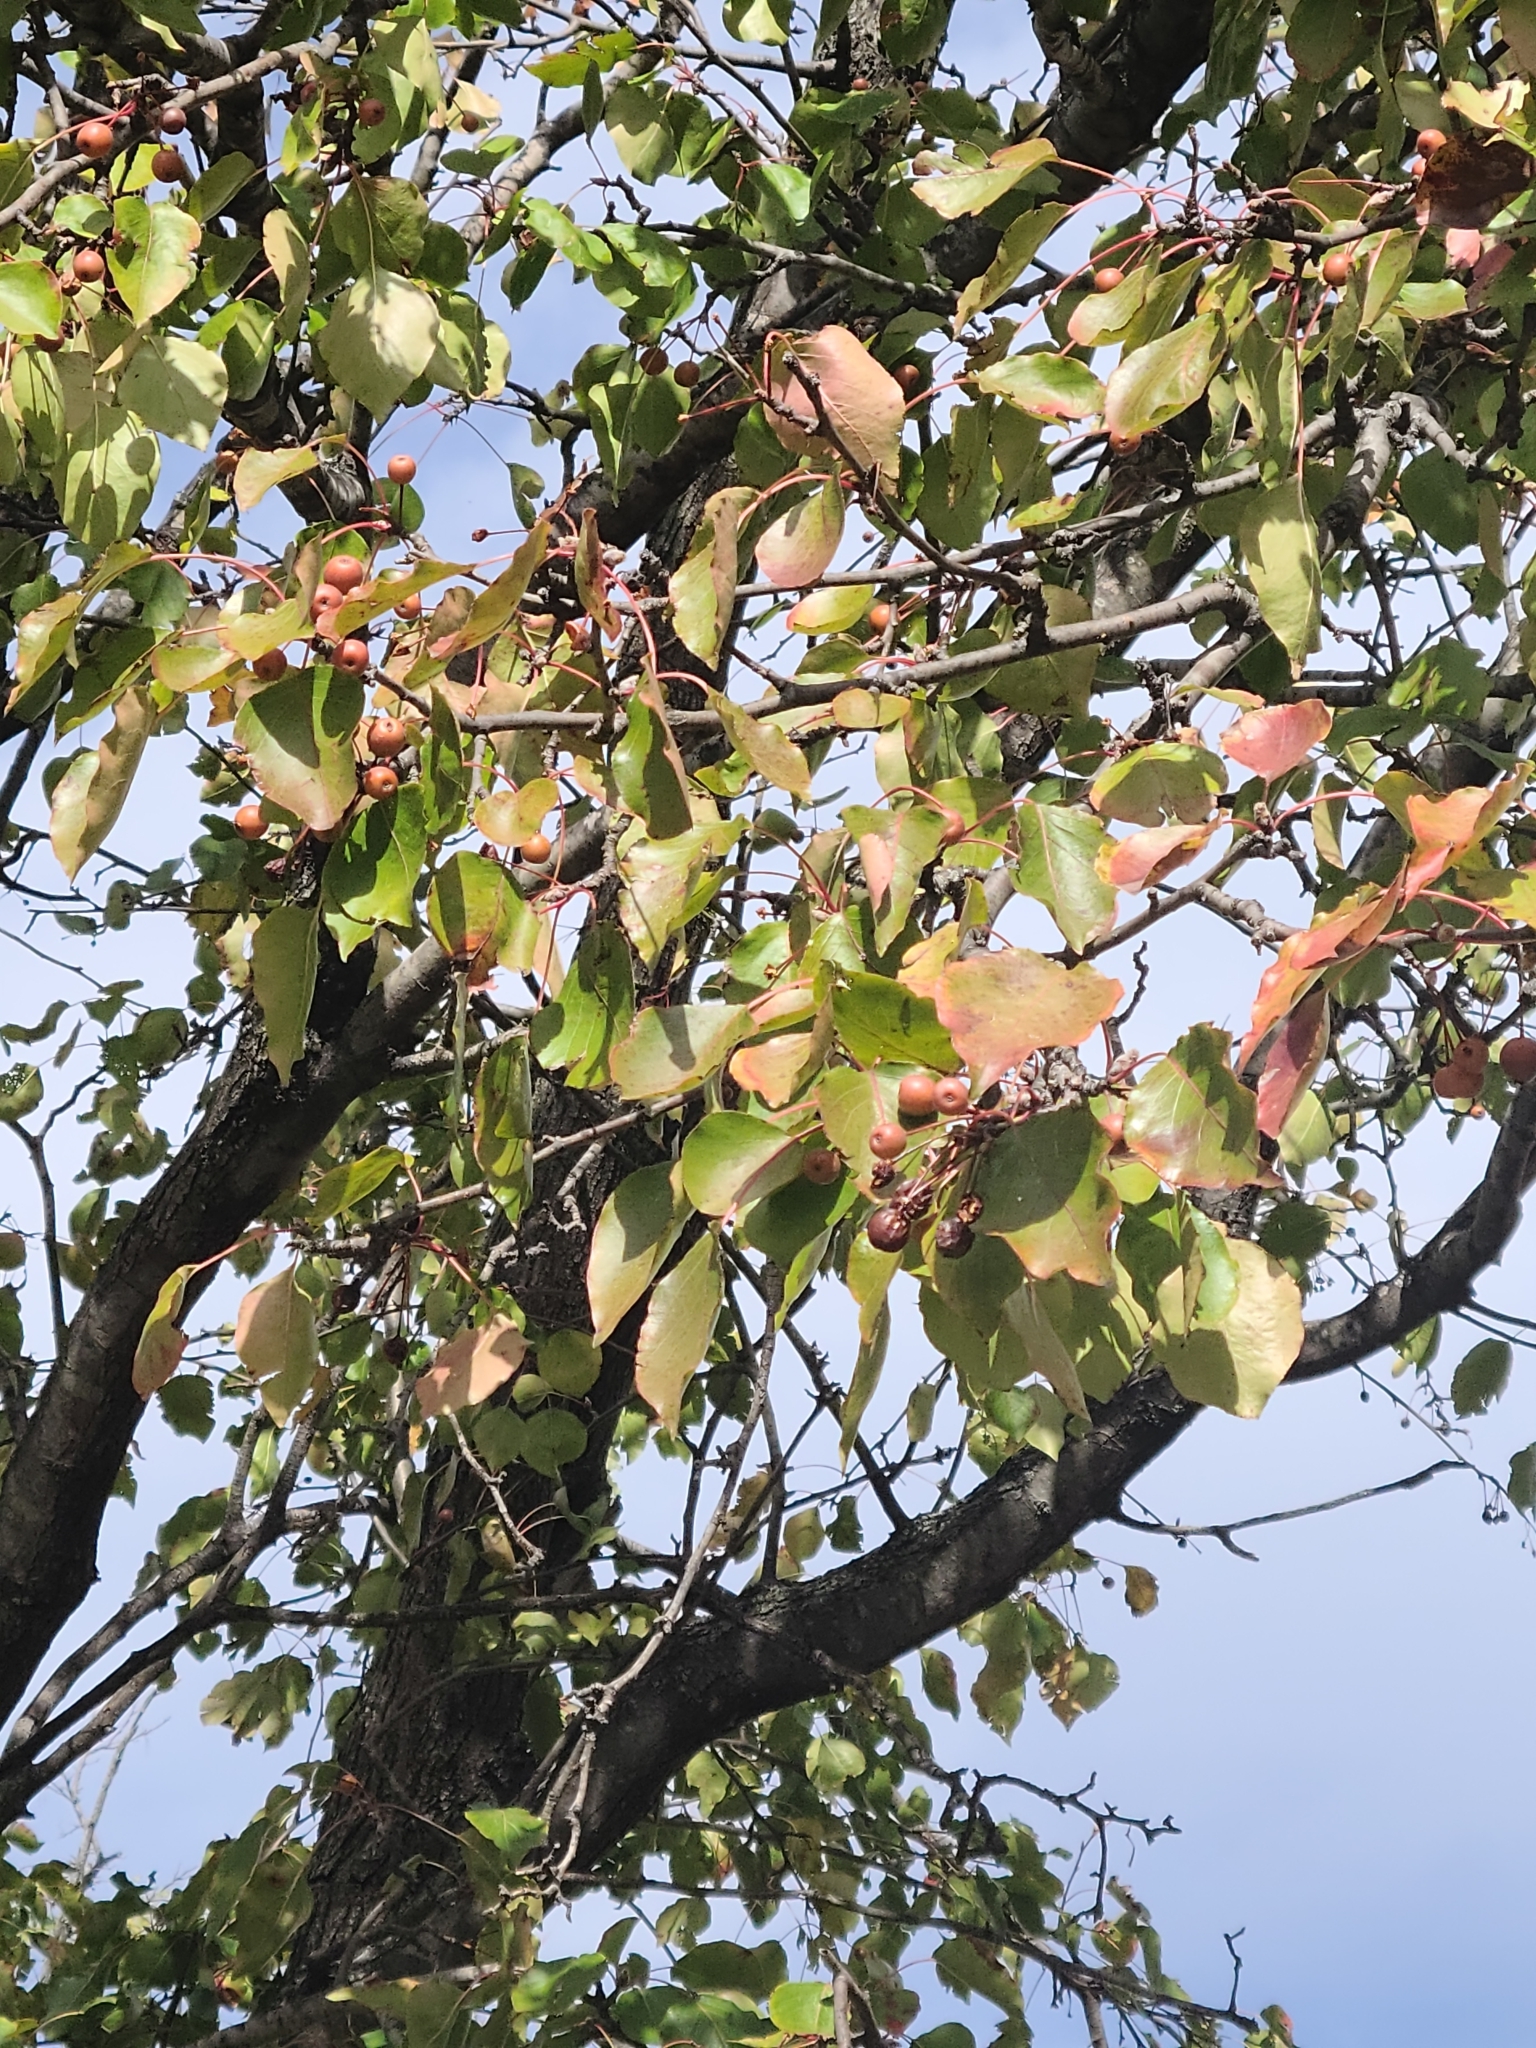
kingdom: Plantae
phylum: Tracheophyta
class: Magnoliopsida
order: Rosales
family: Rosaceae
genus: Pyrus
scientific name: Pyrus calleryana
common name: Callery pear
